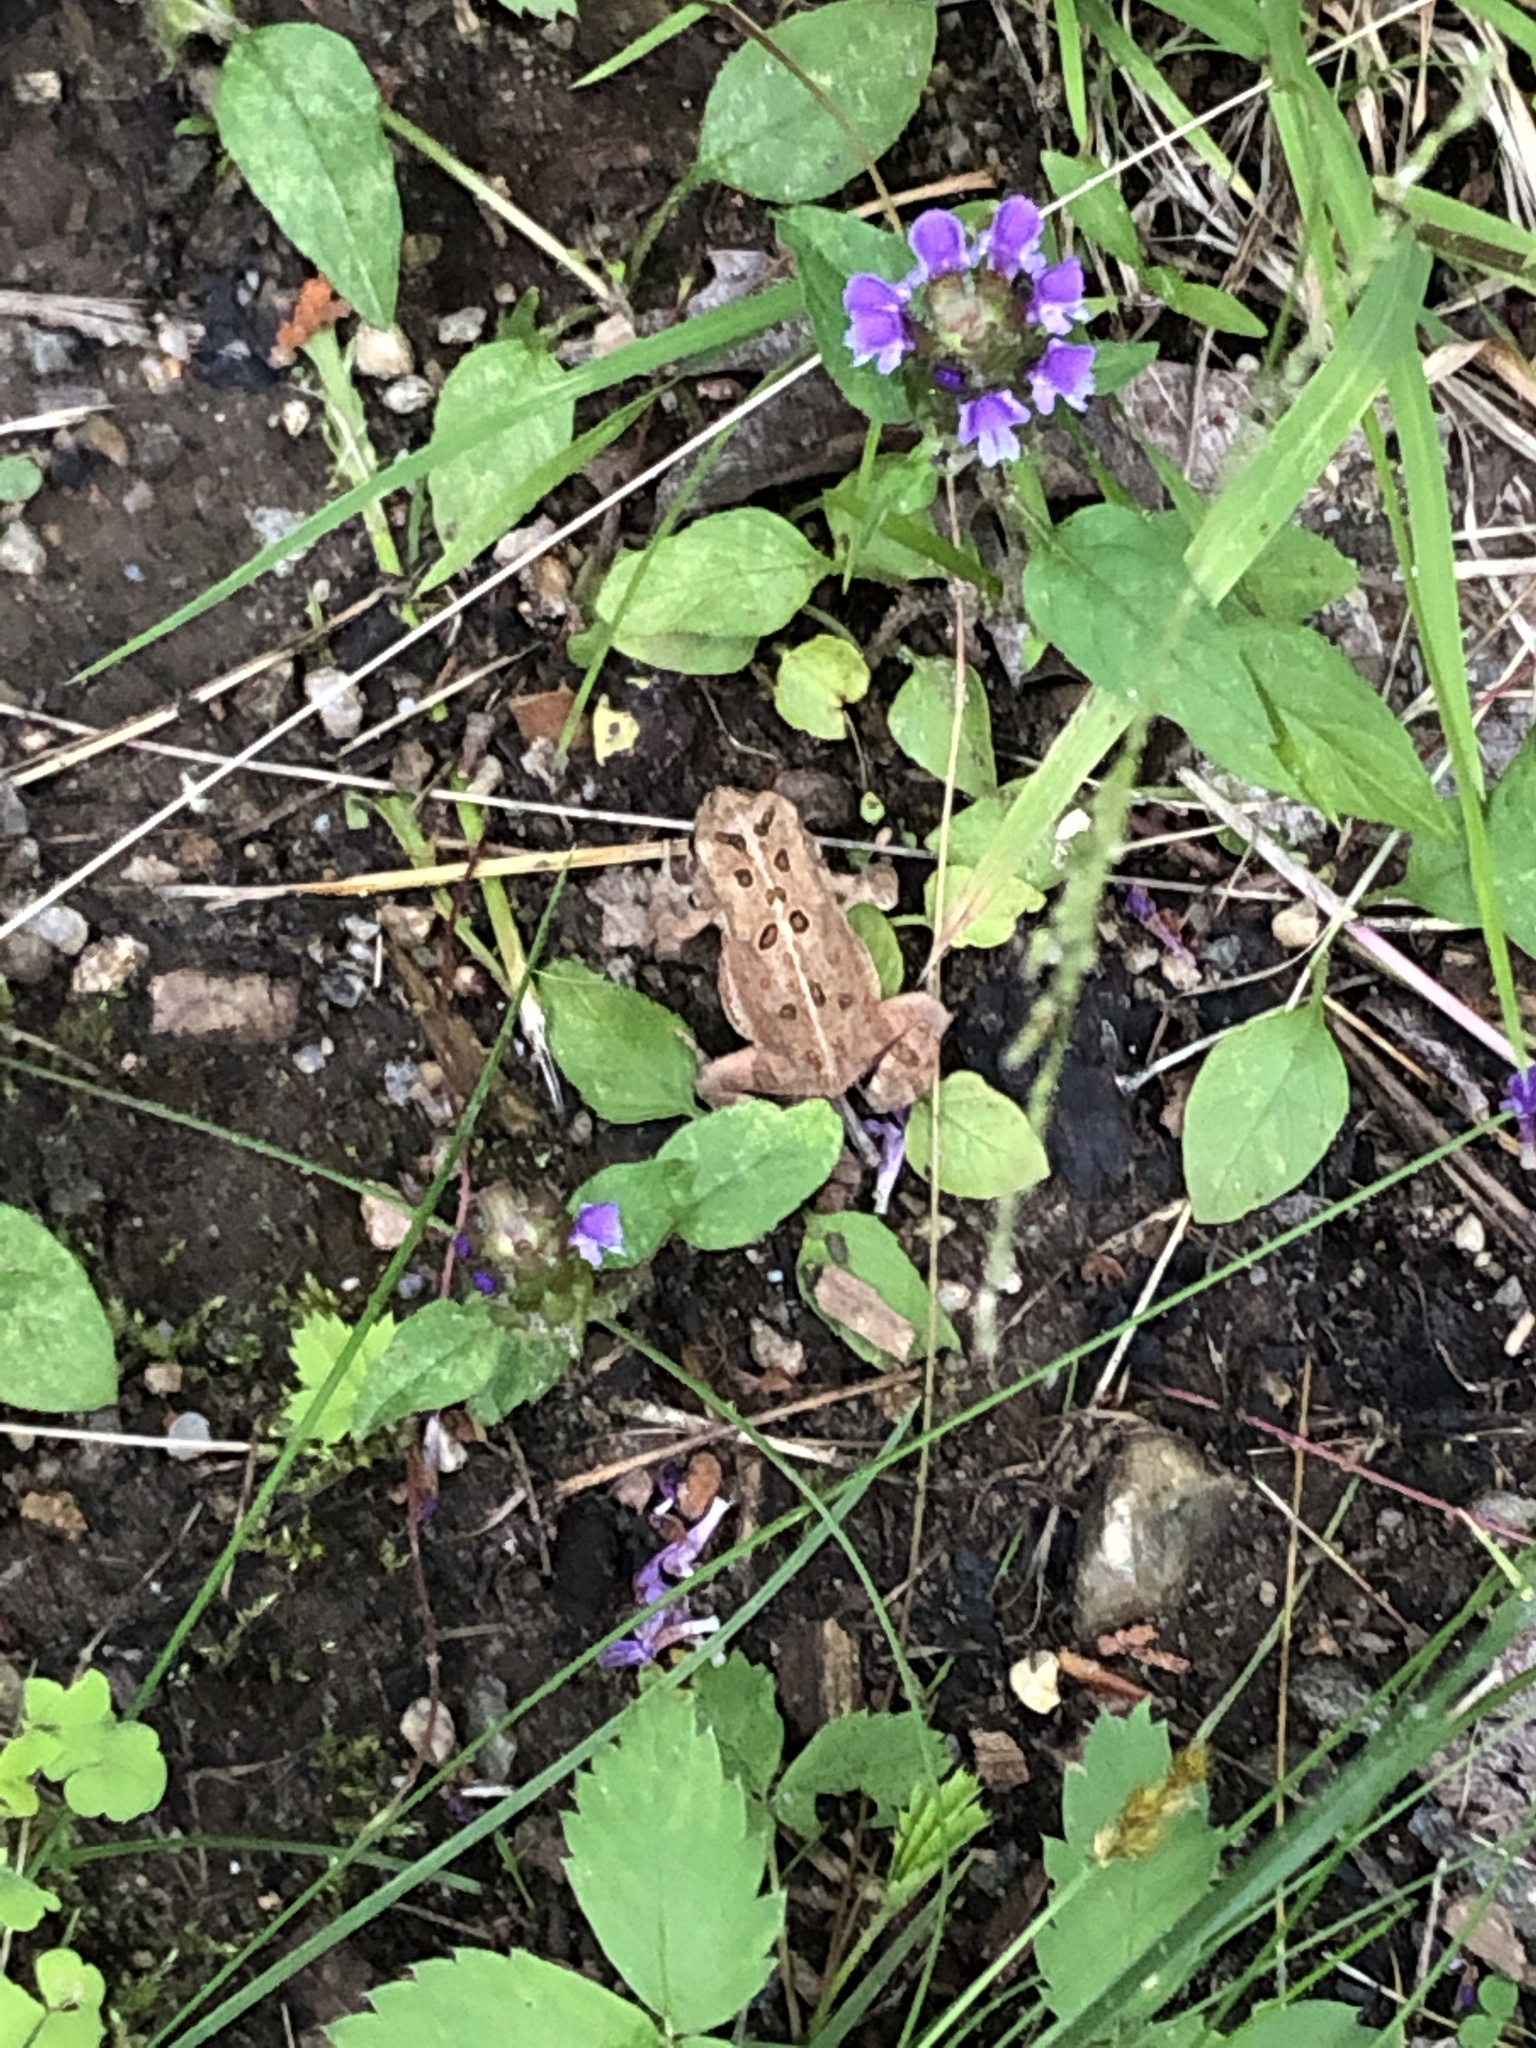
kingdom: Animalia
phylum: Chordata
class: Amphibia
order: Anura
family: Bufonidae
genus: Anaxyrus
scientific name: Anaxyrus americanus
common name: American toad
